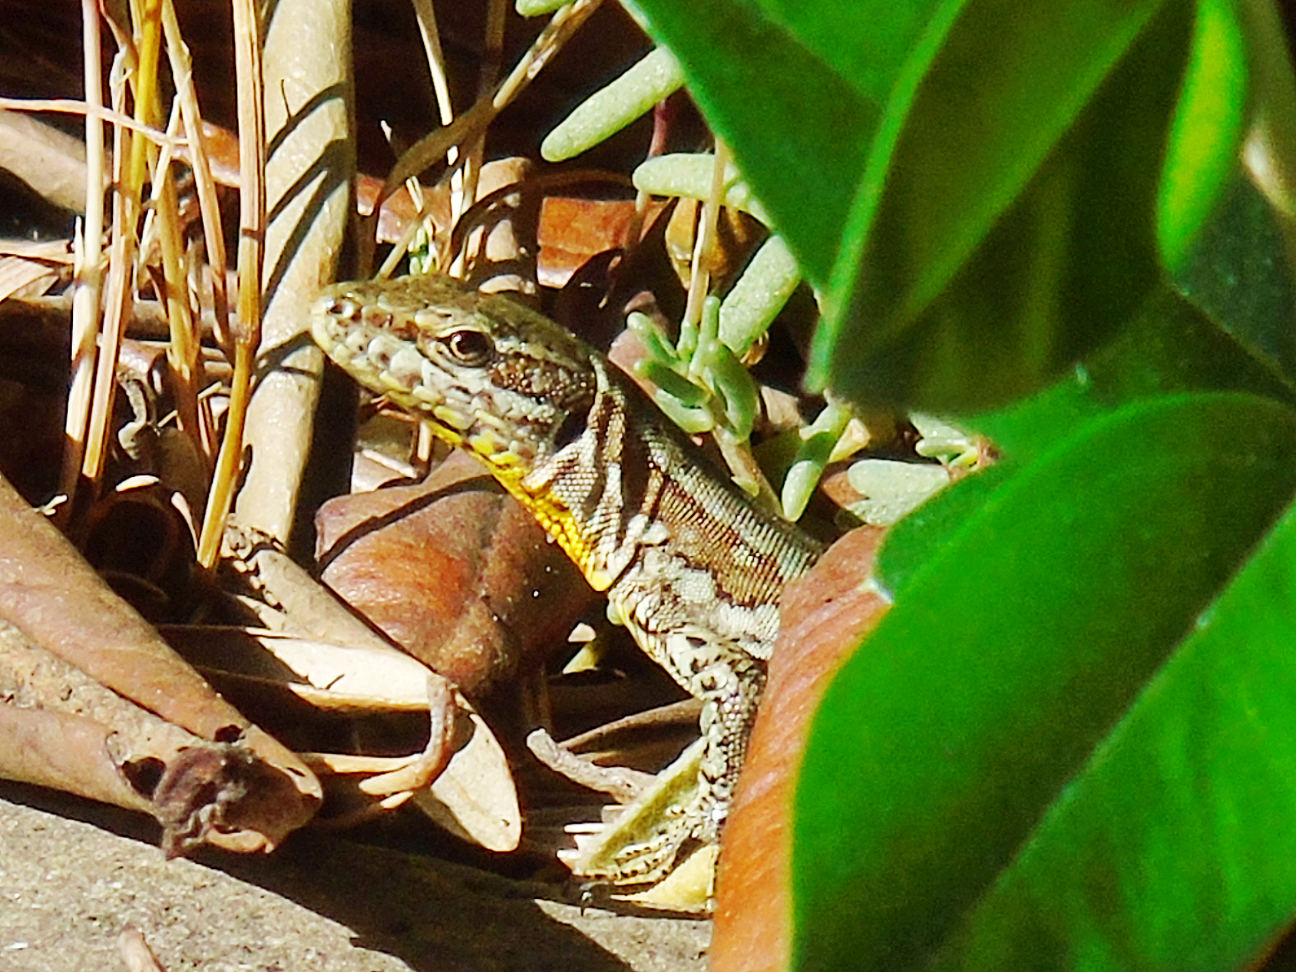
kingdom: Animalia
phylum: Chordata
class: Squamata
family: Lacertidae
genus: Podarcis
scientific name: Podarcis muralis
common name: Common wall lizard
